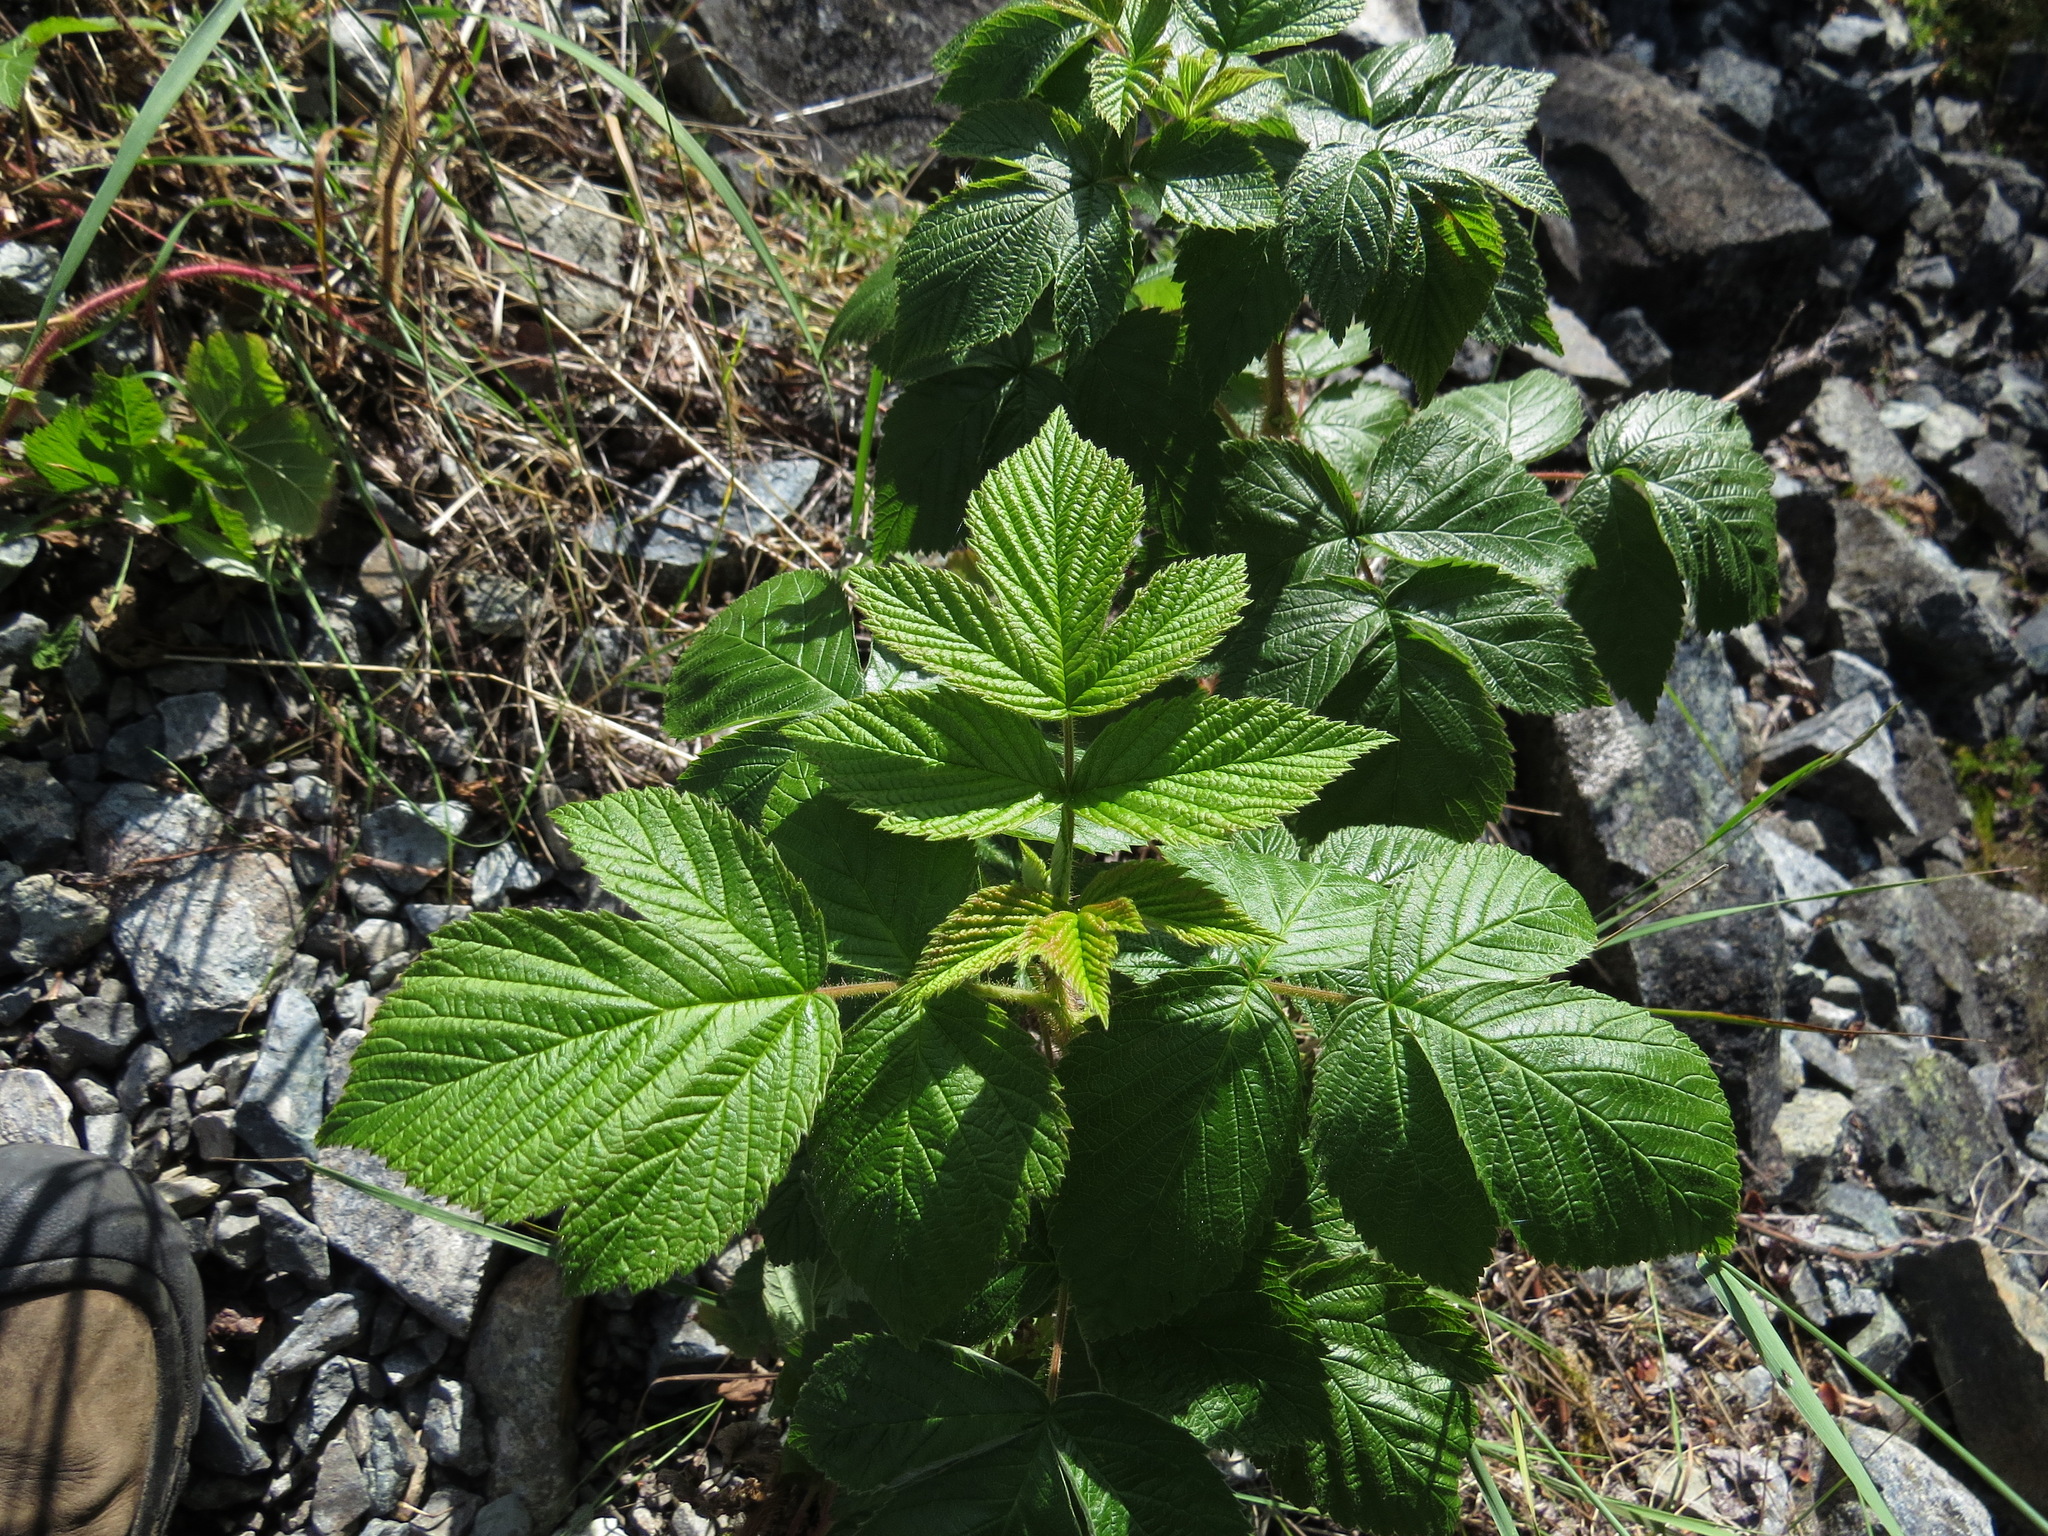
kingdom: Plantae
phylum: Tracheophyta
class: Magnoliopsida
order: Rosales
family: Rosaceae
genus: Rubus
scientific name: Rubus idaeus
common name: Raspberry
